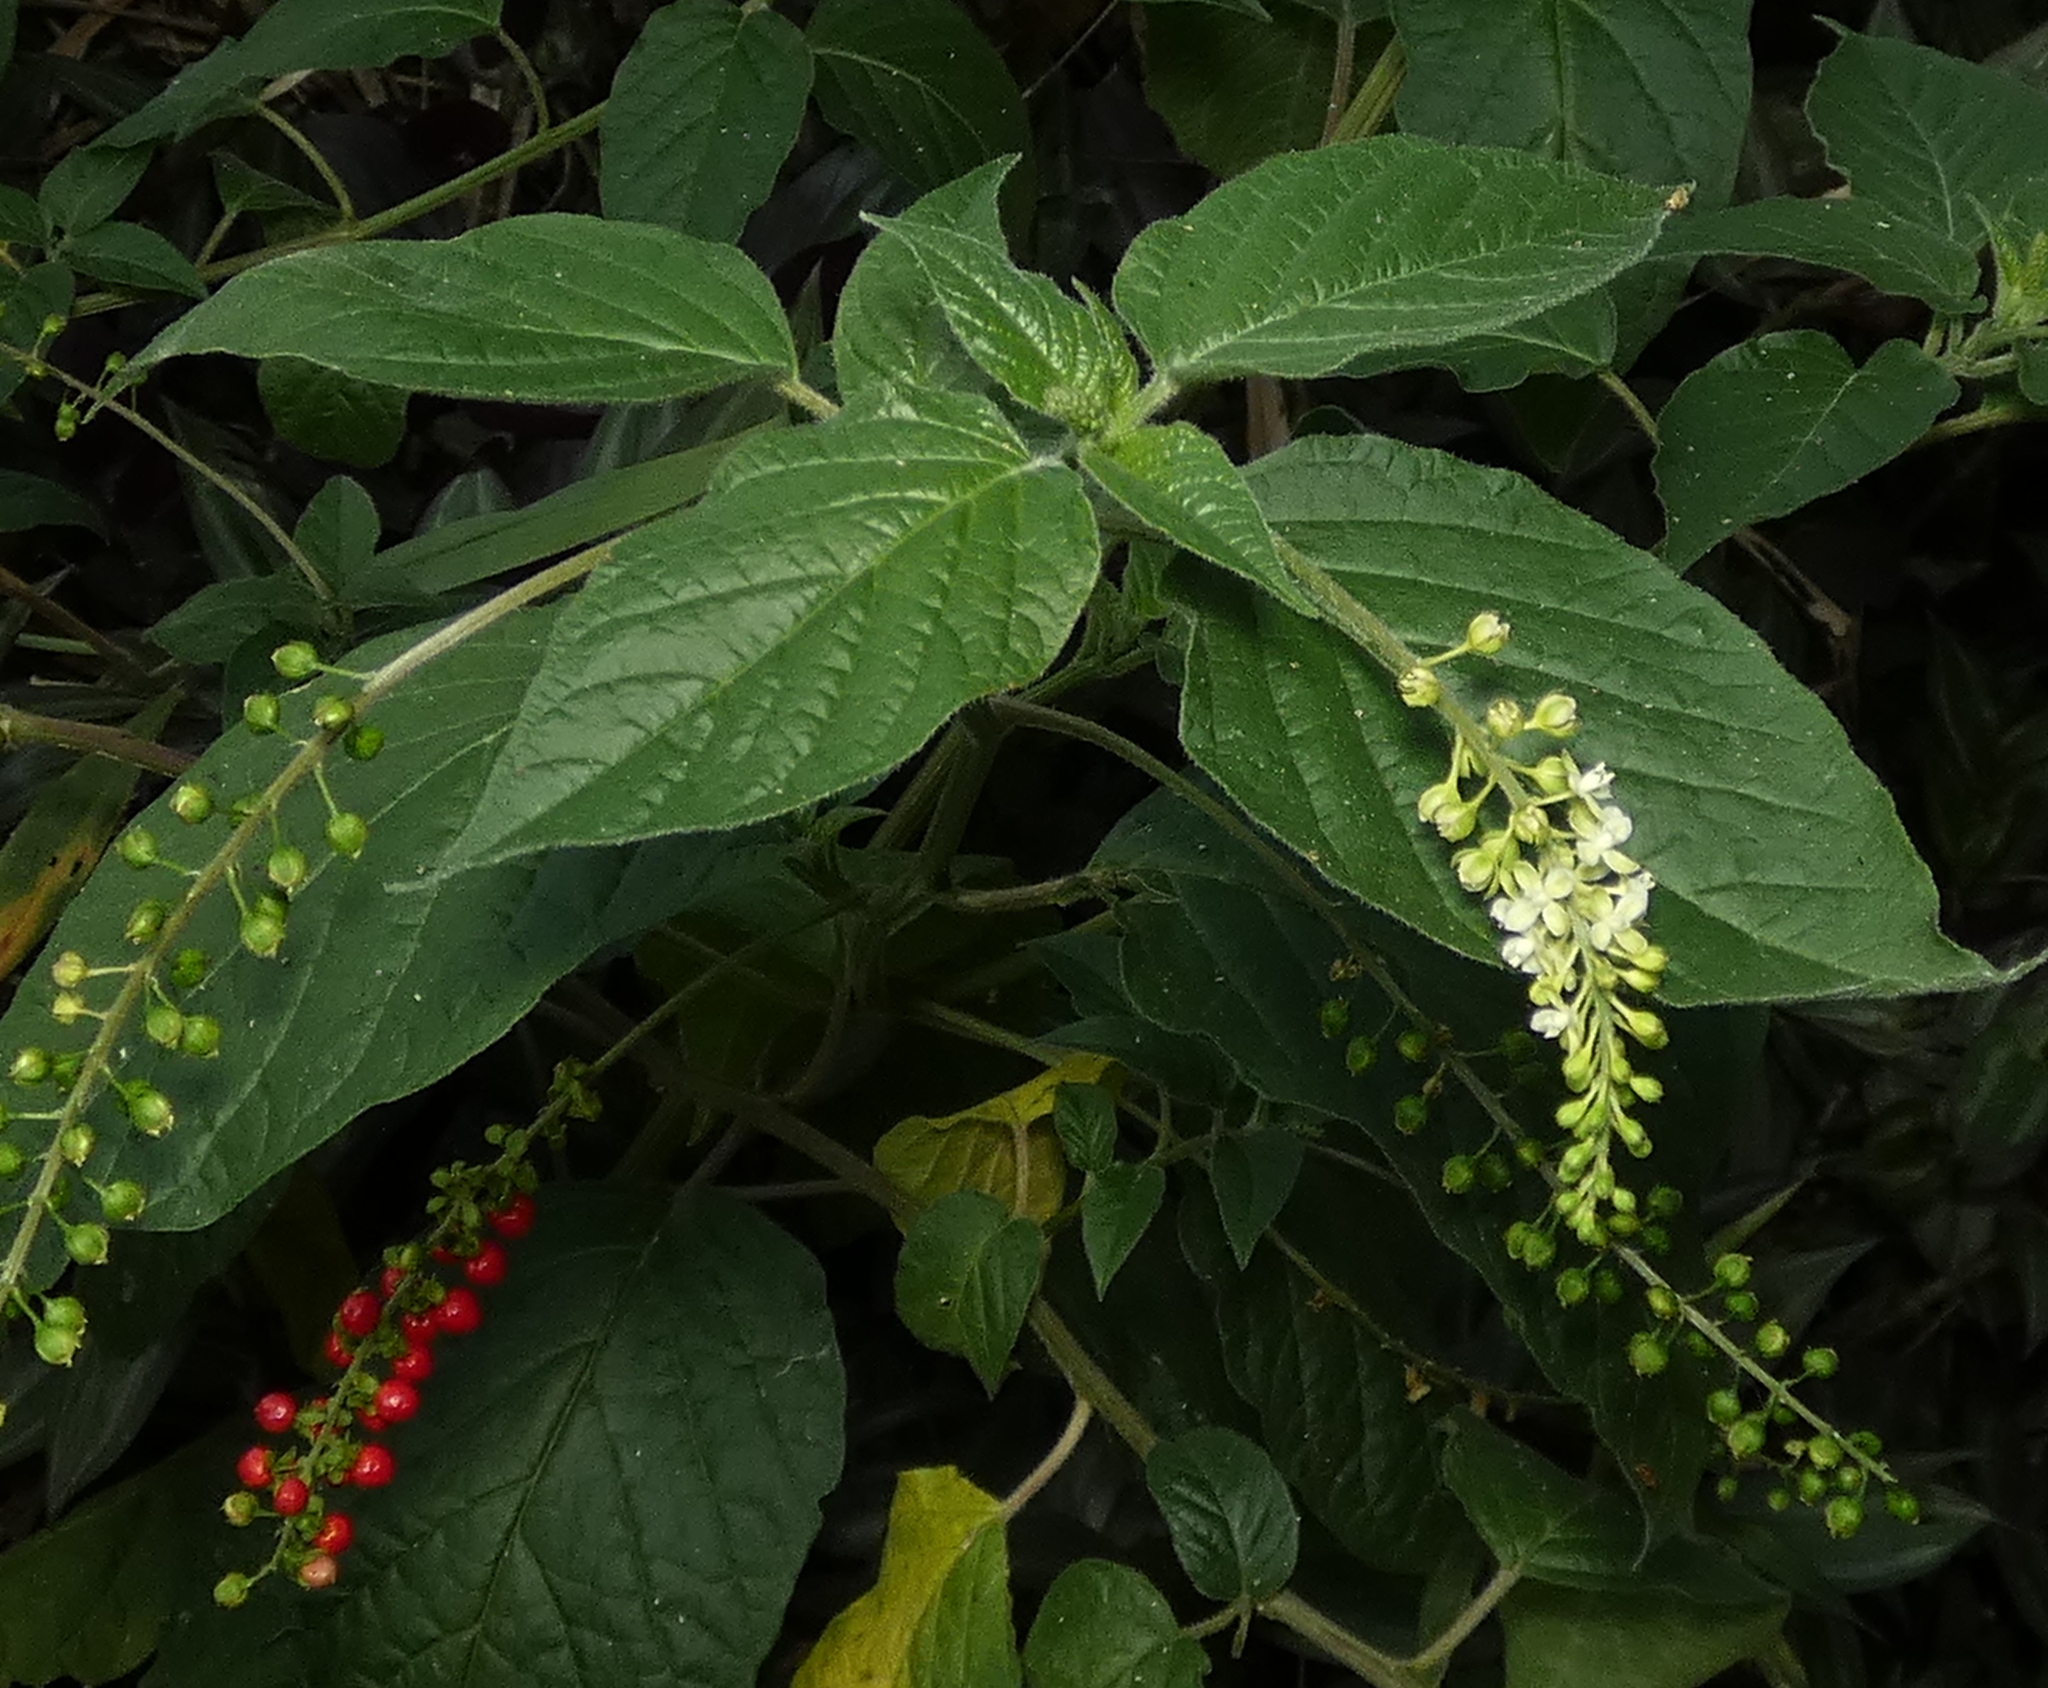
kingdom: Plantae
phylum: Tracheophyta
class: Magnoliopsida
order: Caryophyllales
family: Phytolaccaceae
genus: Rivina
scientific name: Rivina humilis
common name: Rougeplant
